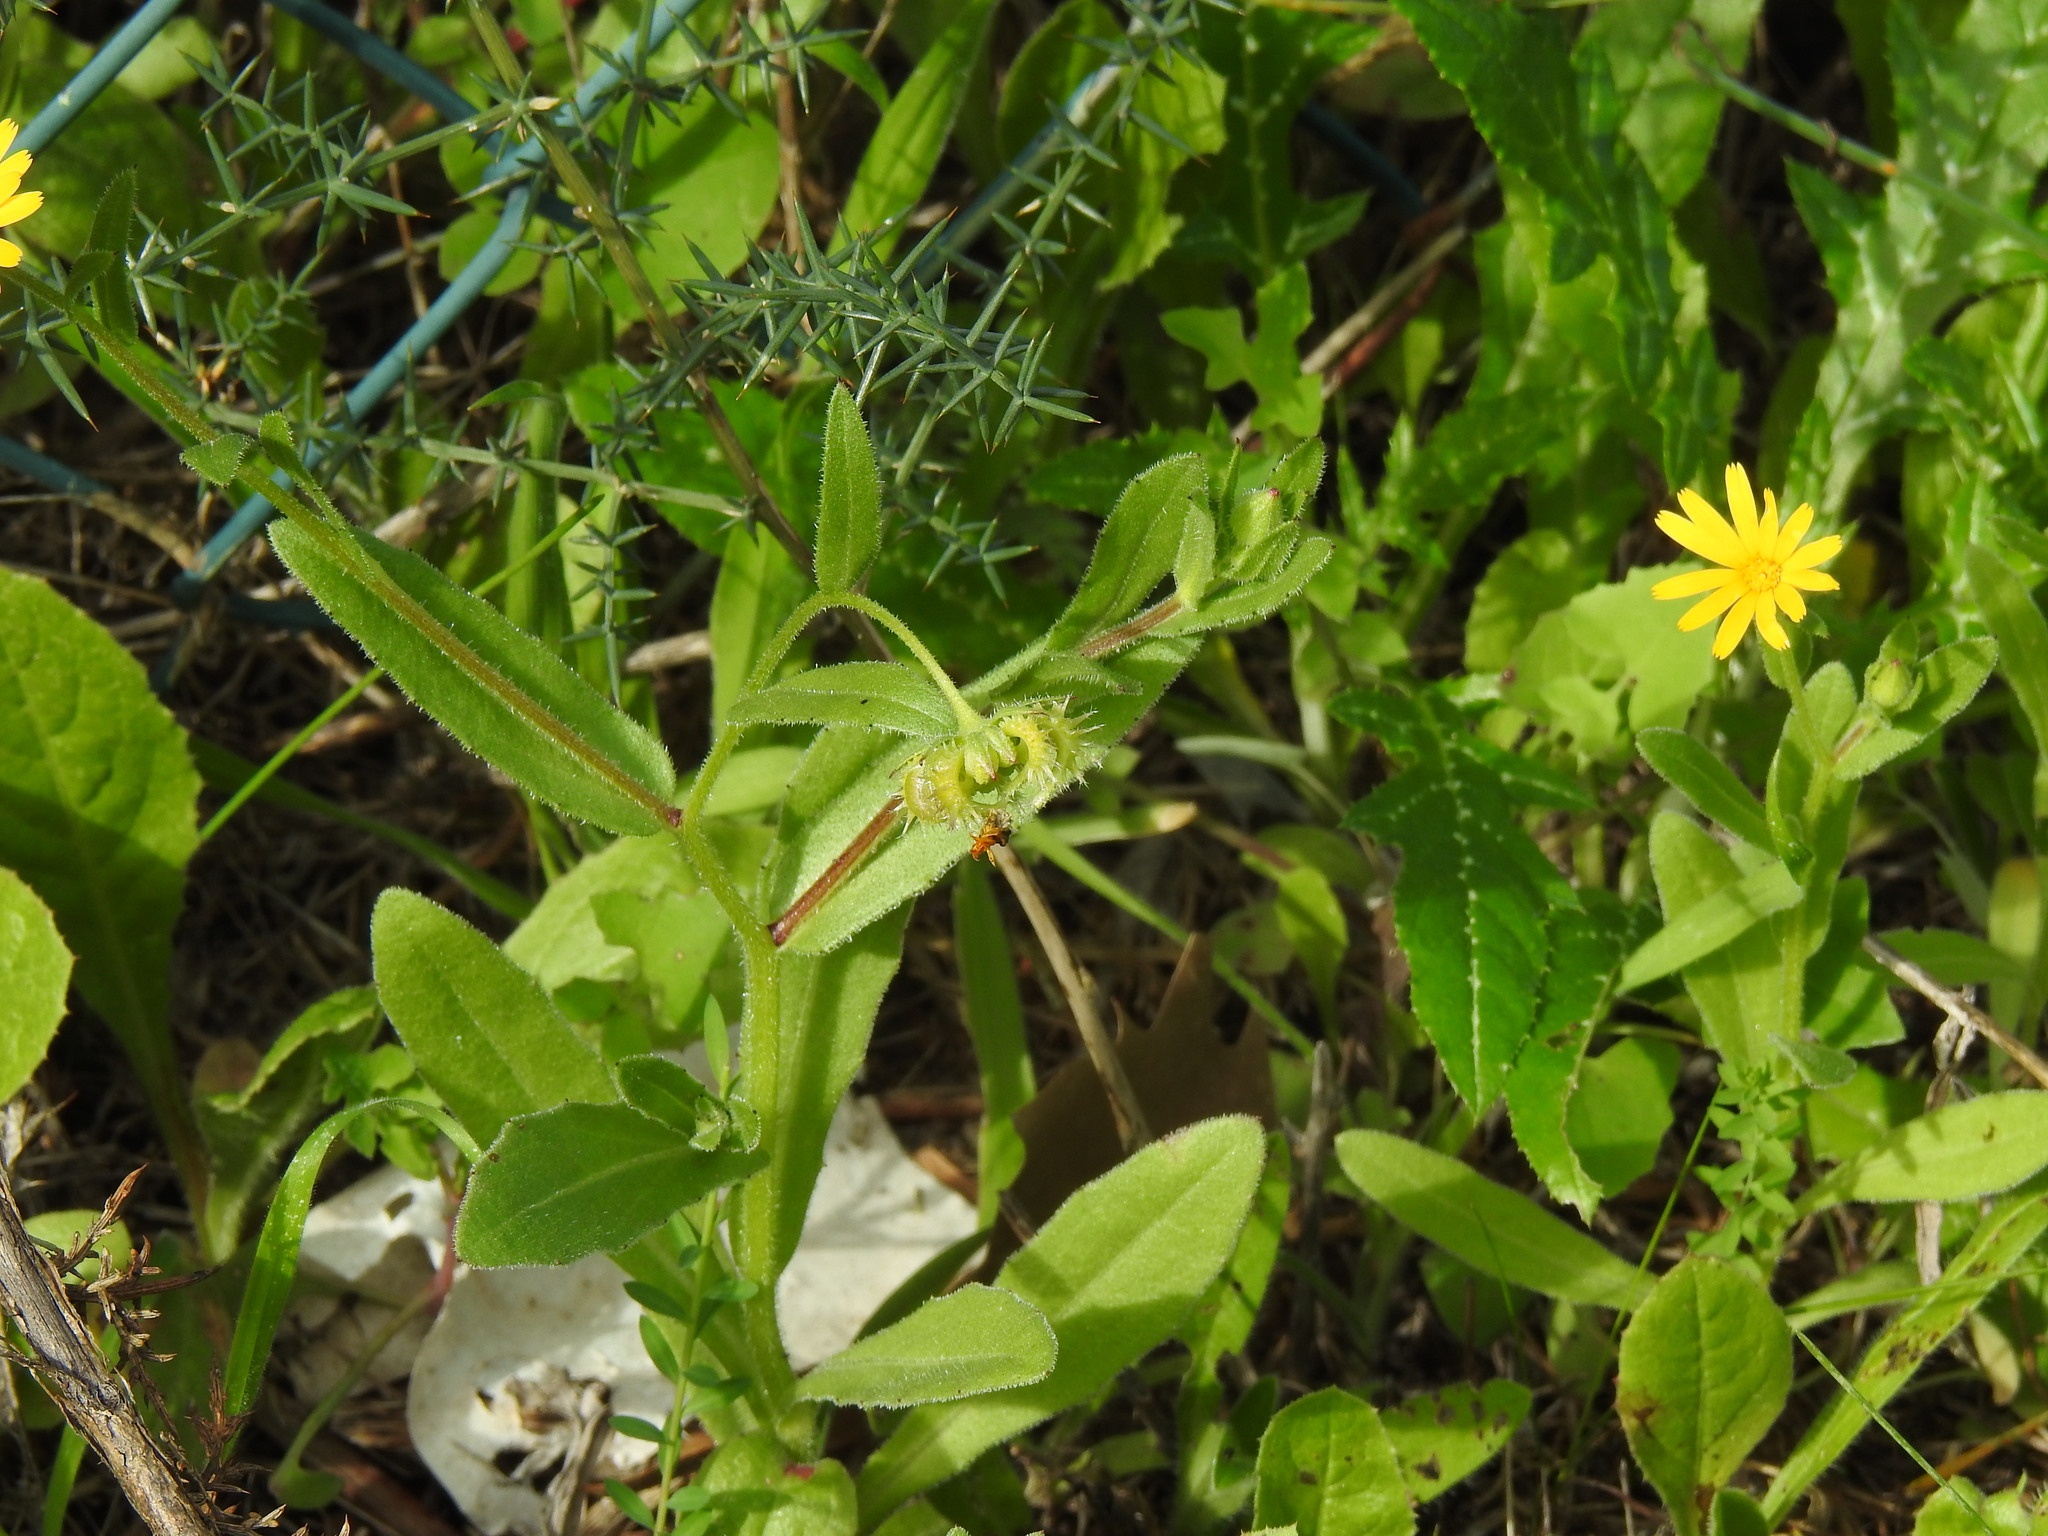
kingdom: Plantae
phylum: Tracheophyta
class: Magnoliopsida
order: Asterales
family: Asteraceae
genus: Calendula
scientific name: Calendula arvensis
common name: Field marigold
